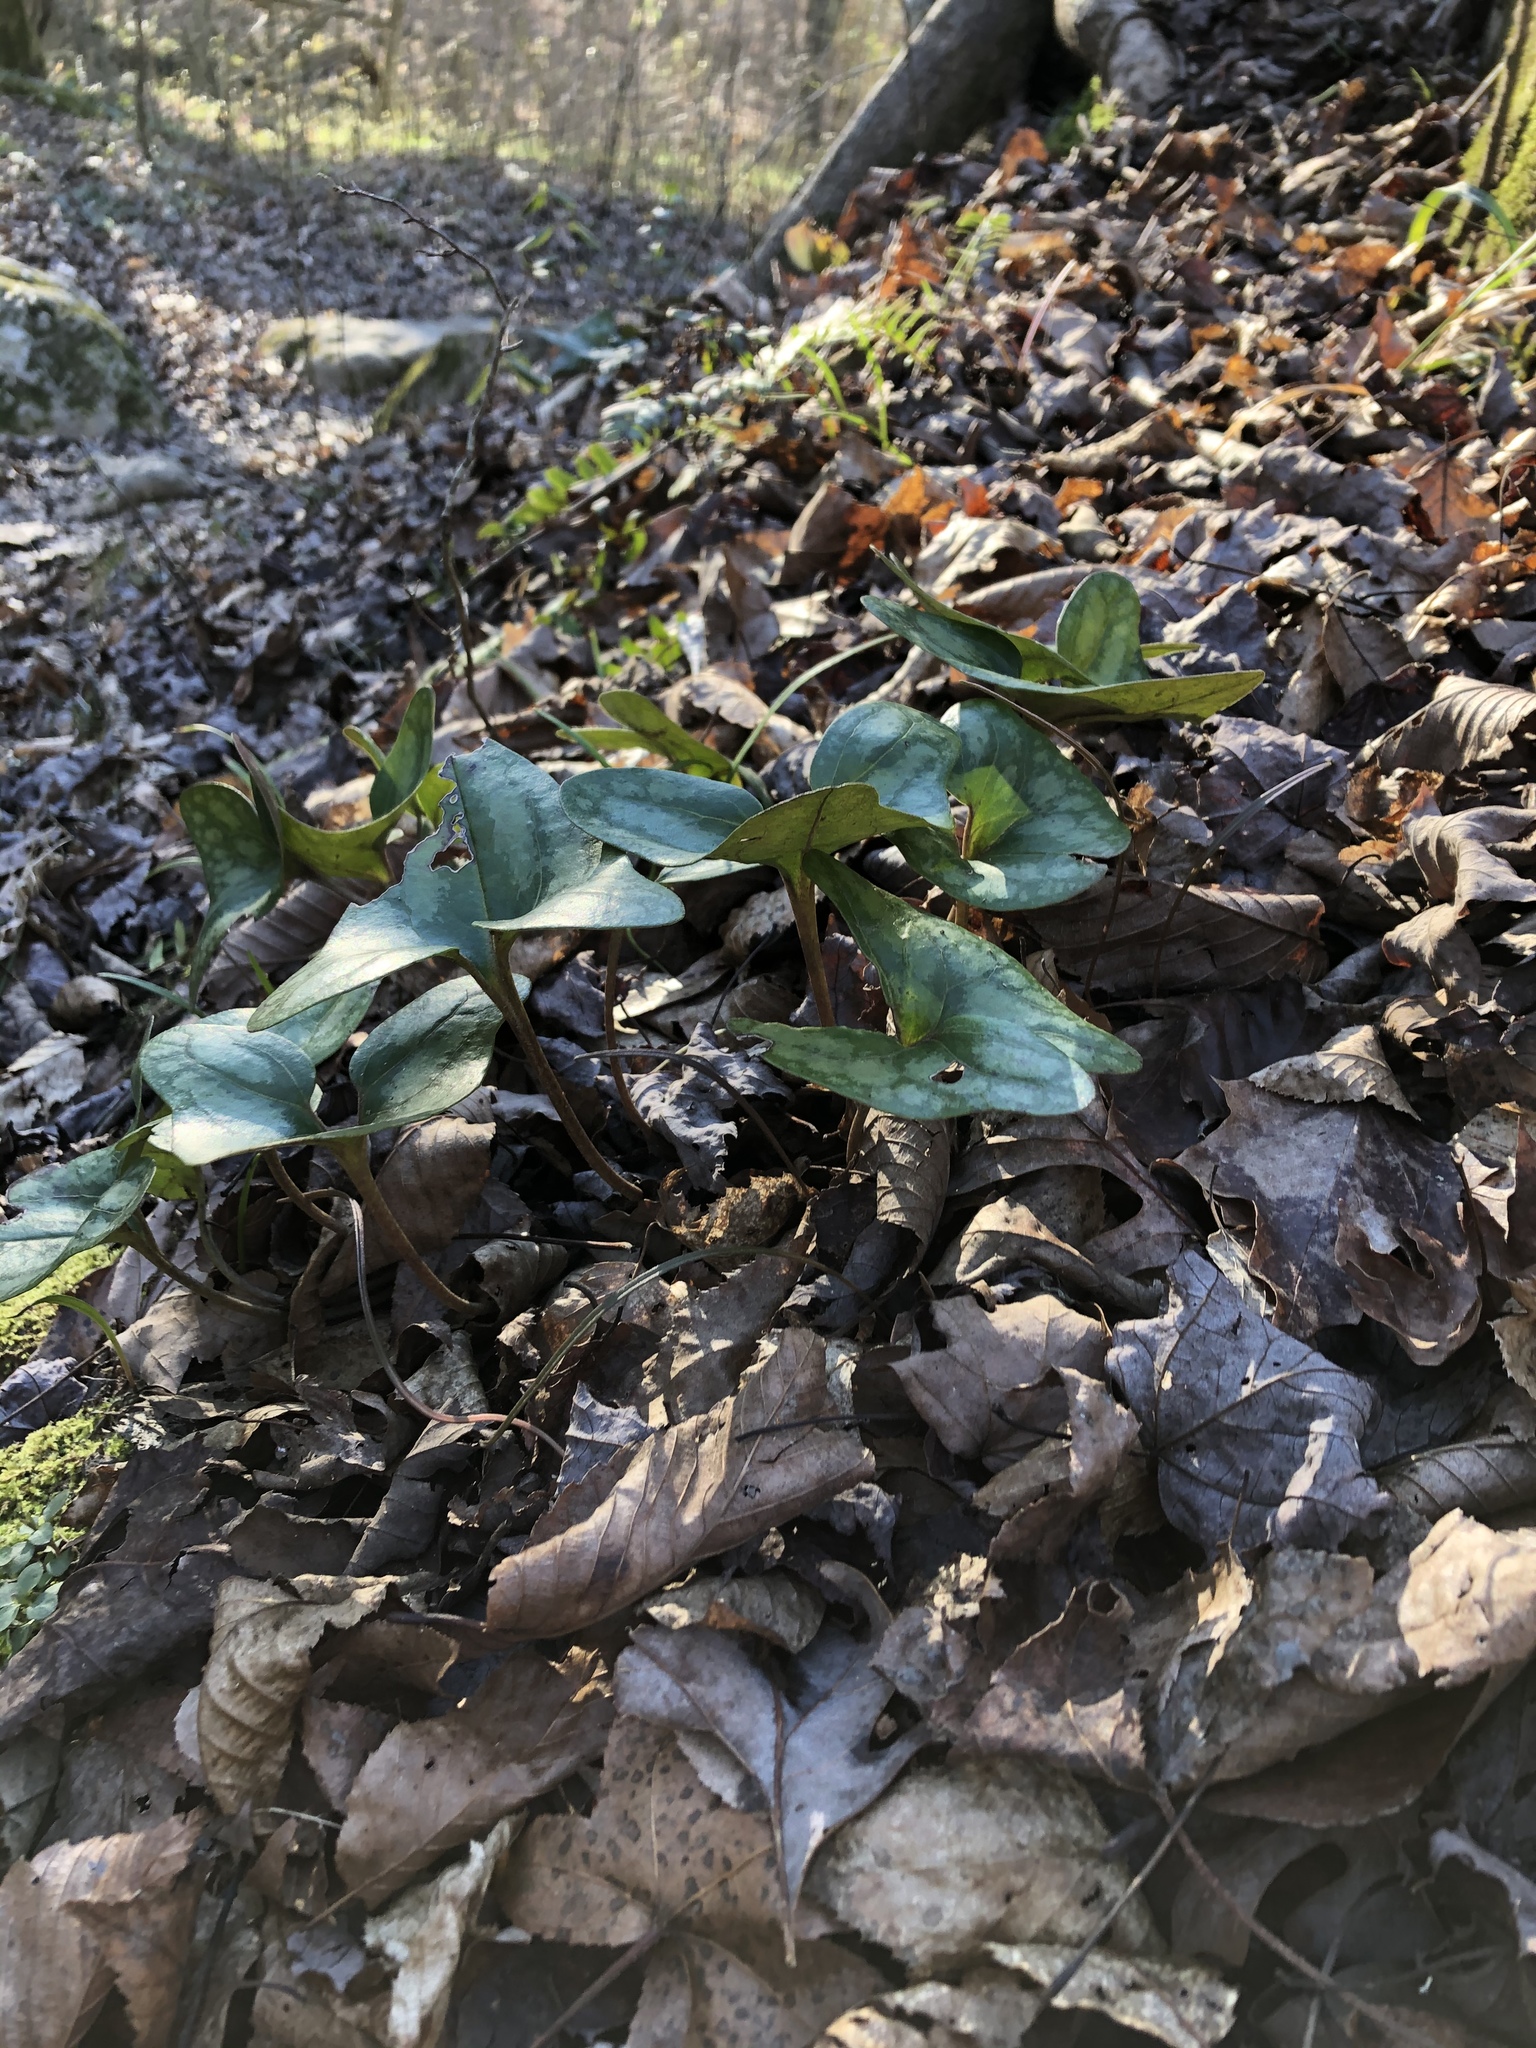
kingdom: Plantae
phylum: Tracheophyta
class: Magnoliopsida
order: Piperales
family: Aristolochiaceae
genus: Hexastylis
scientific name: Hexastylis arifolia
